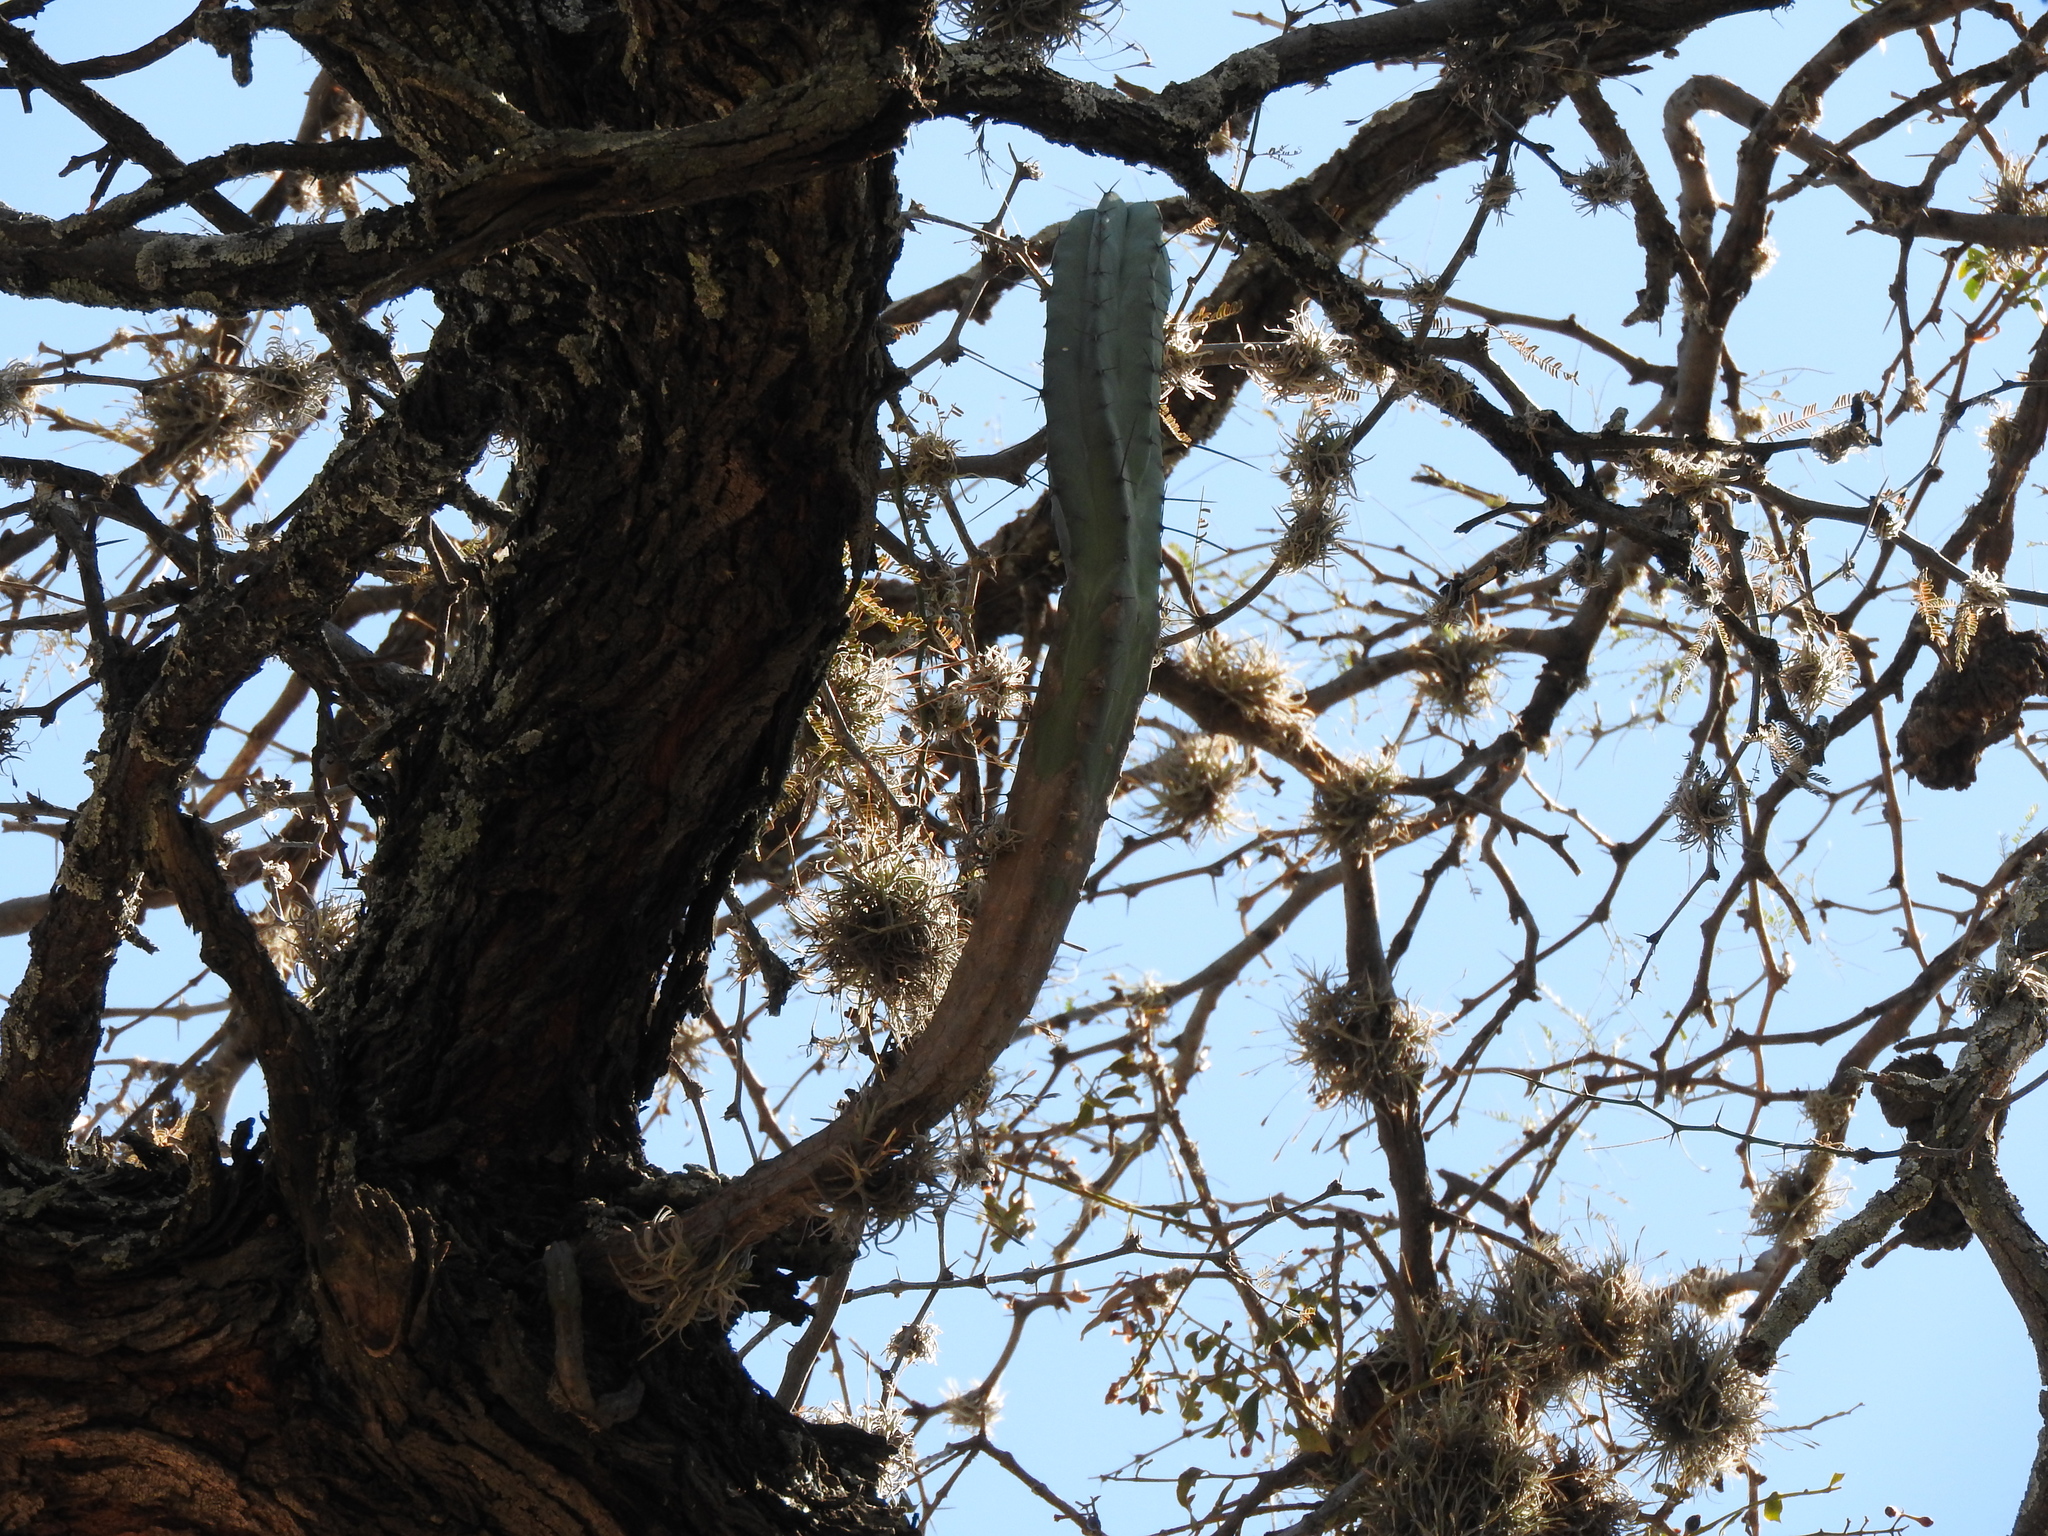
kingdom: Plantae
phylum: Tracheophyta
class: Magnoliopsida
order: Caryophyllales
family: Cactaceae
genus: Myrtillocactus
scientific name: Myrtillocactus geometrizans
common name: Bilberry cactus
